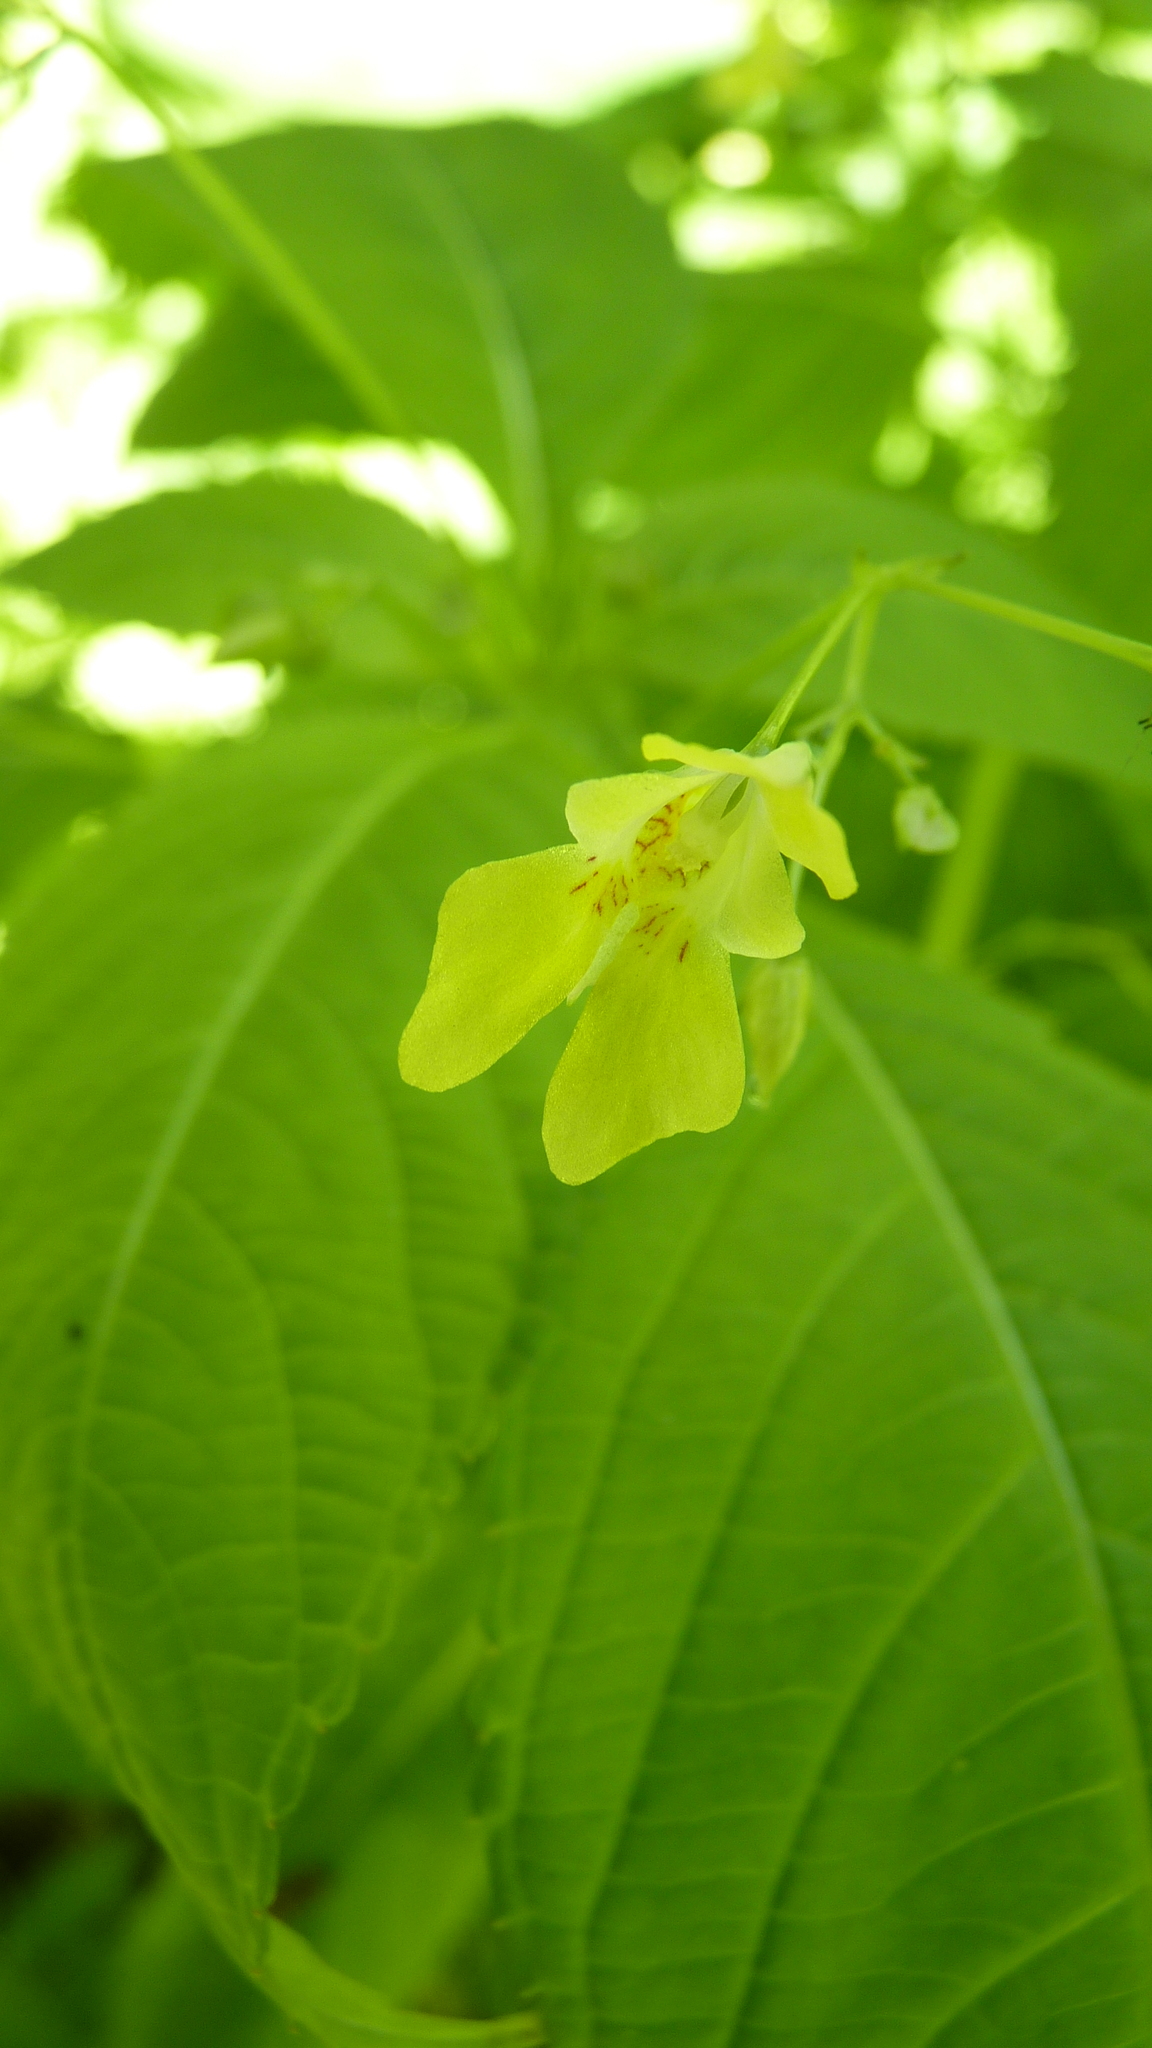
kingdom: Plantae
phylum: Tracheophyta
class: Magnoliopsida
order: Ericales
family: Balsaminaceae
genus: Impatiens
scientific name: Impatiens parviflora
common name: Small balsam
